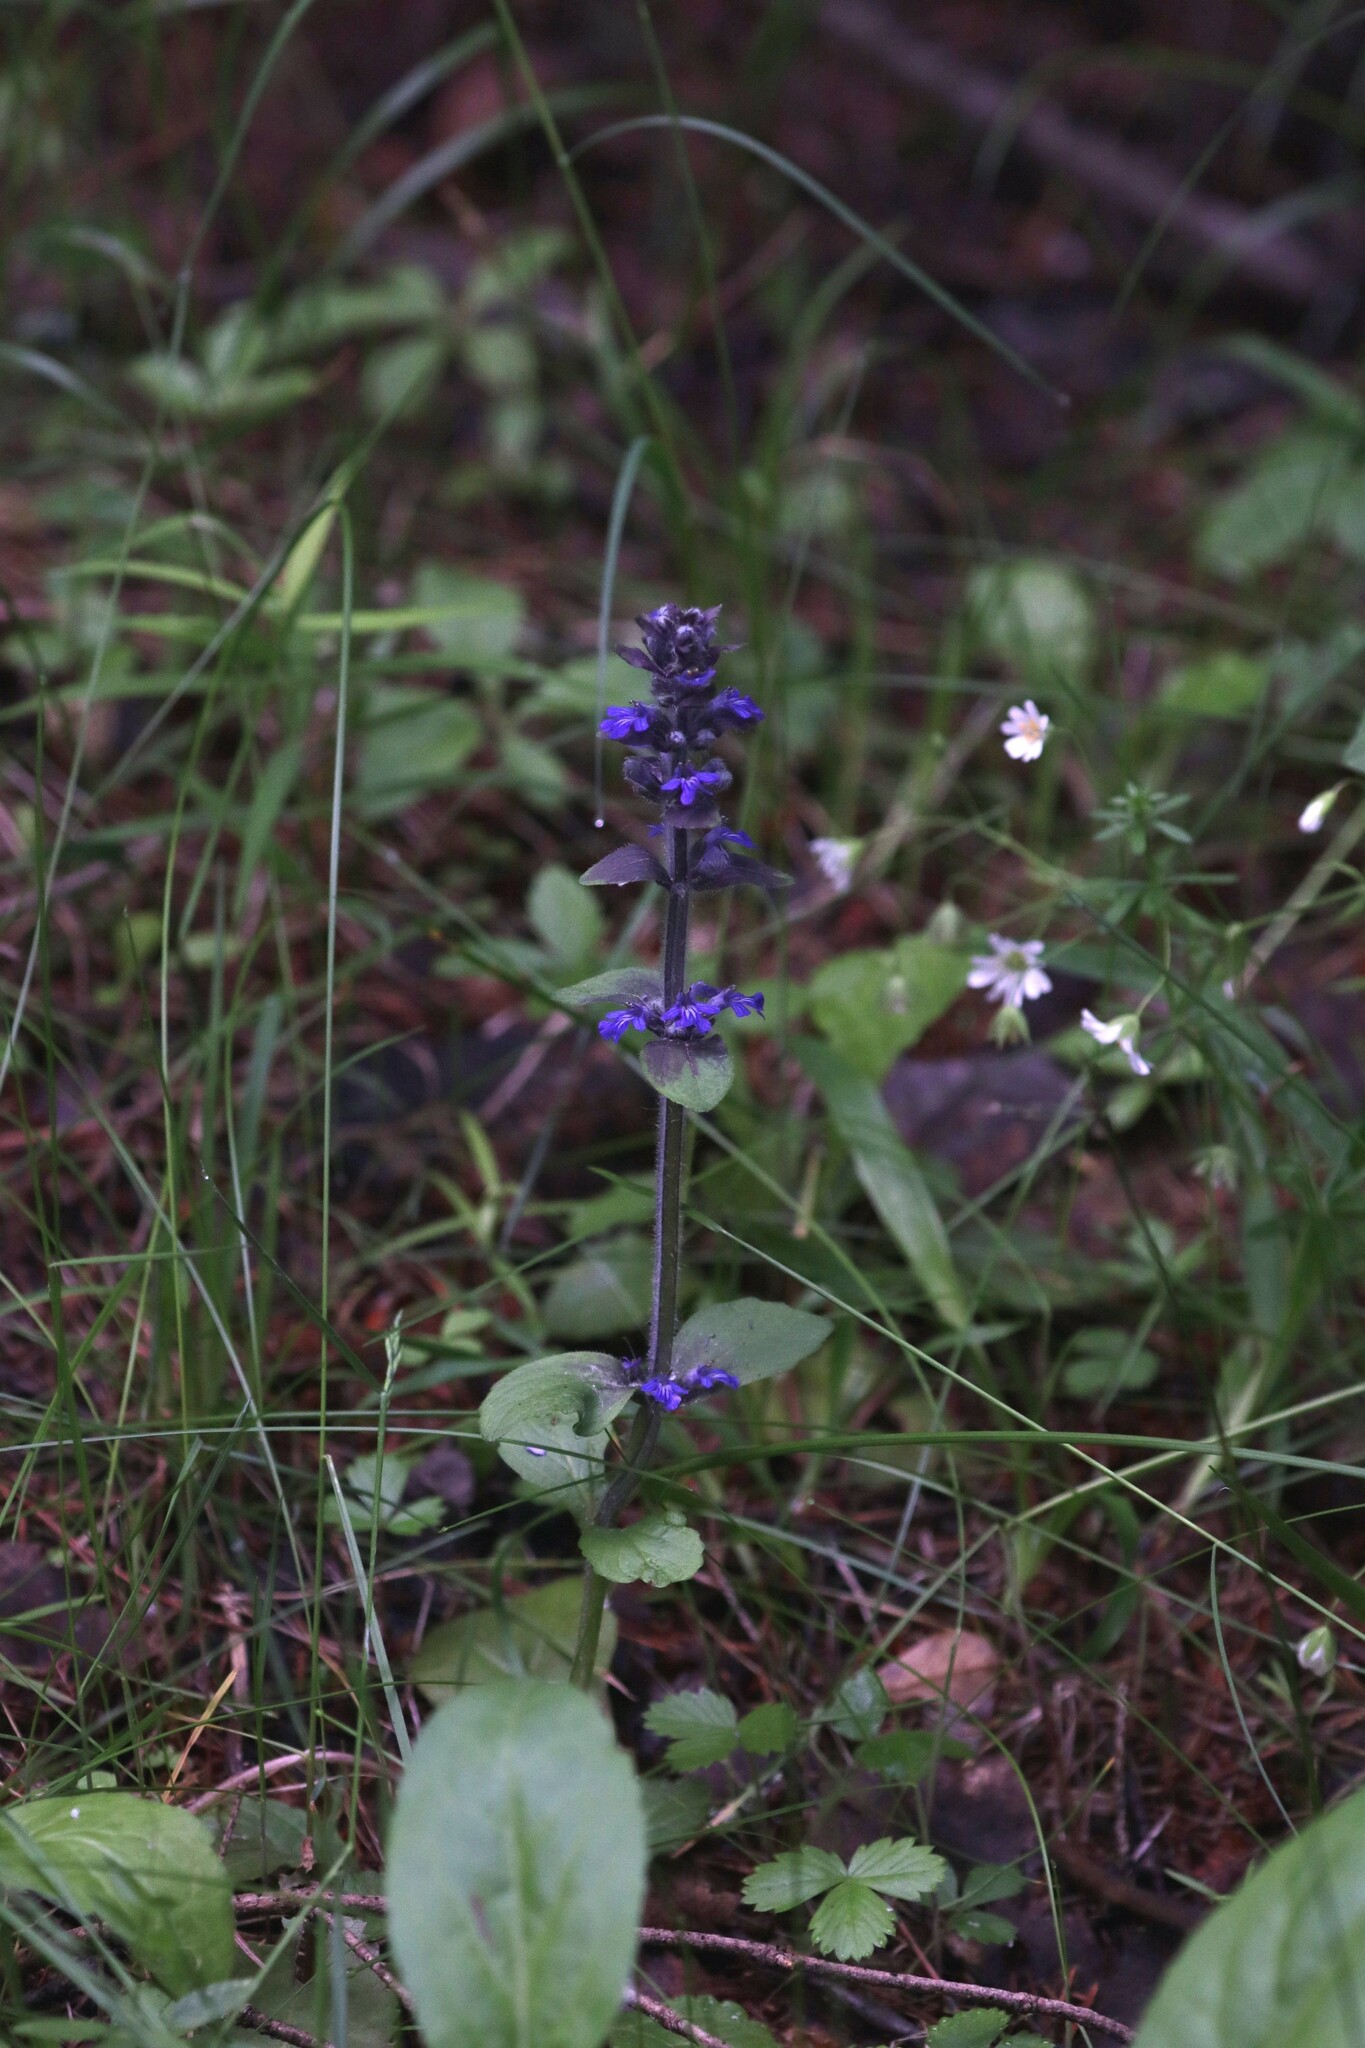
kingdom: Plantae
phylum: Tracheophyta
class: Magnoliopsida
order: Lamiales
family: Lamiaceae
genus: Ajuga
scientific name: Ajuga reptans
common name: Bugle
